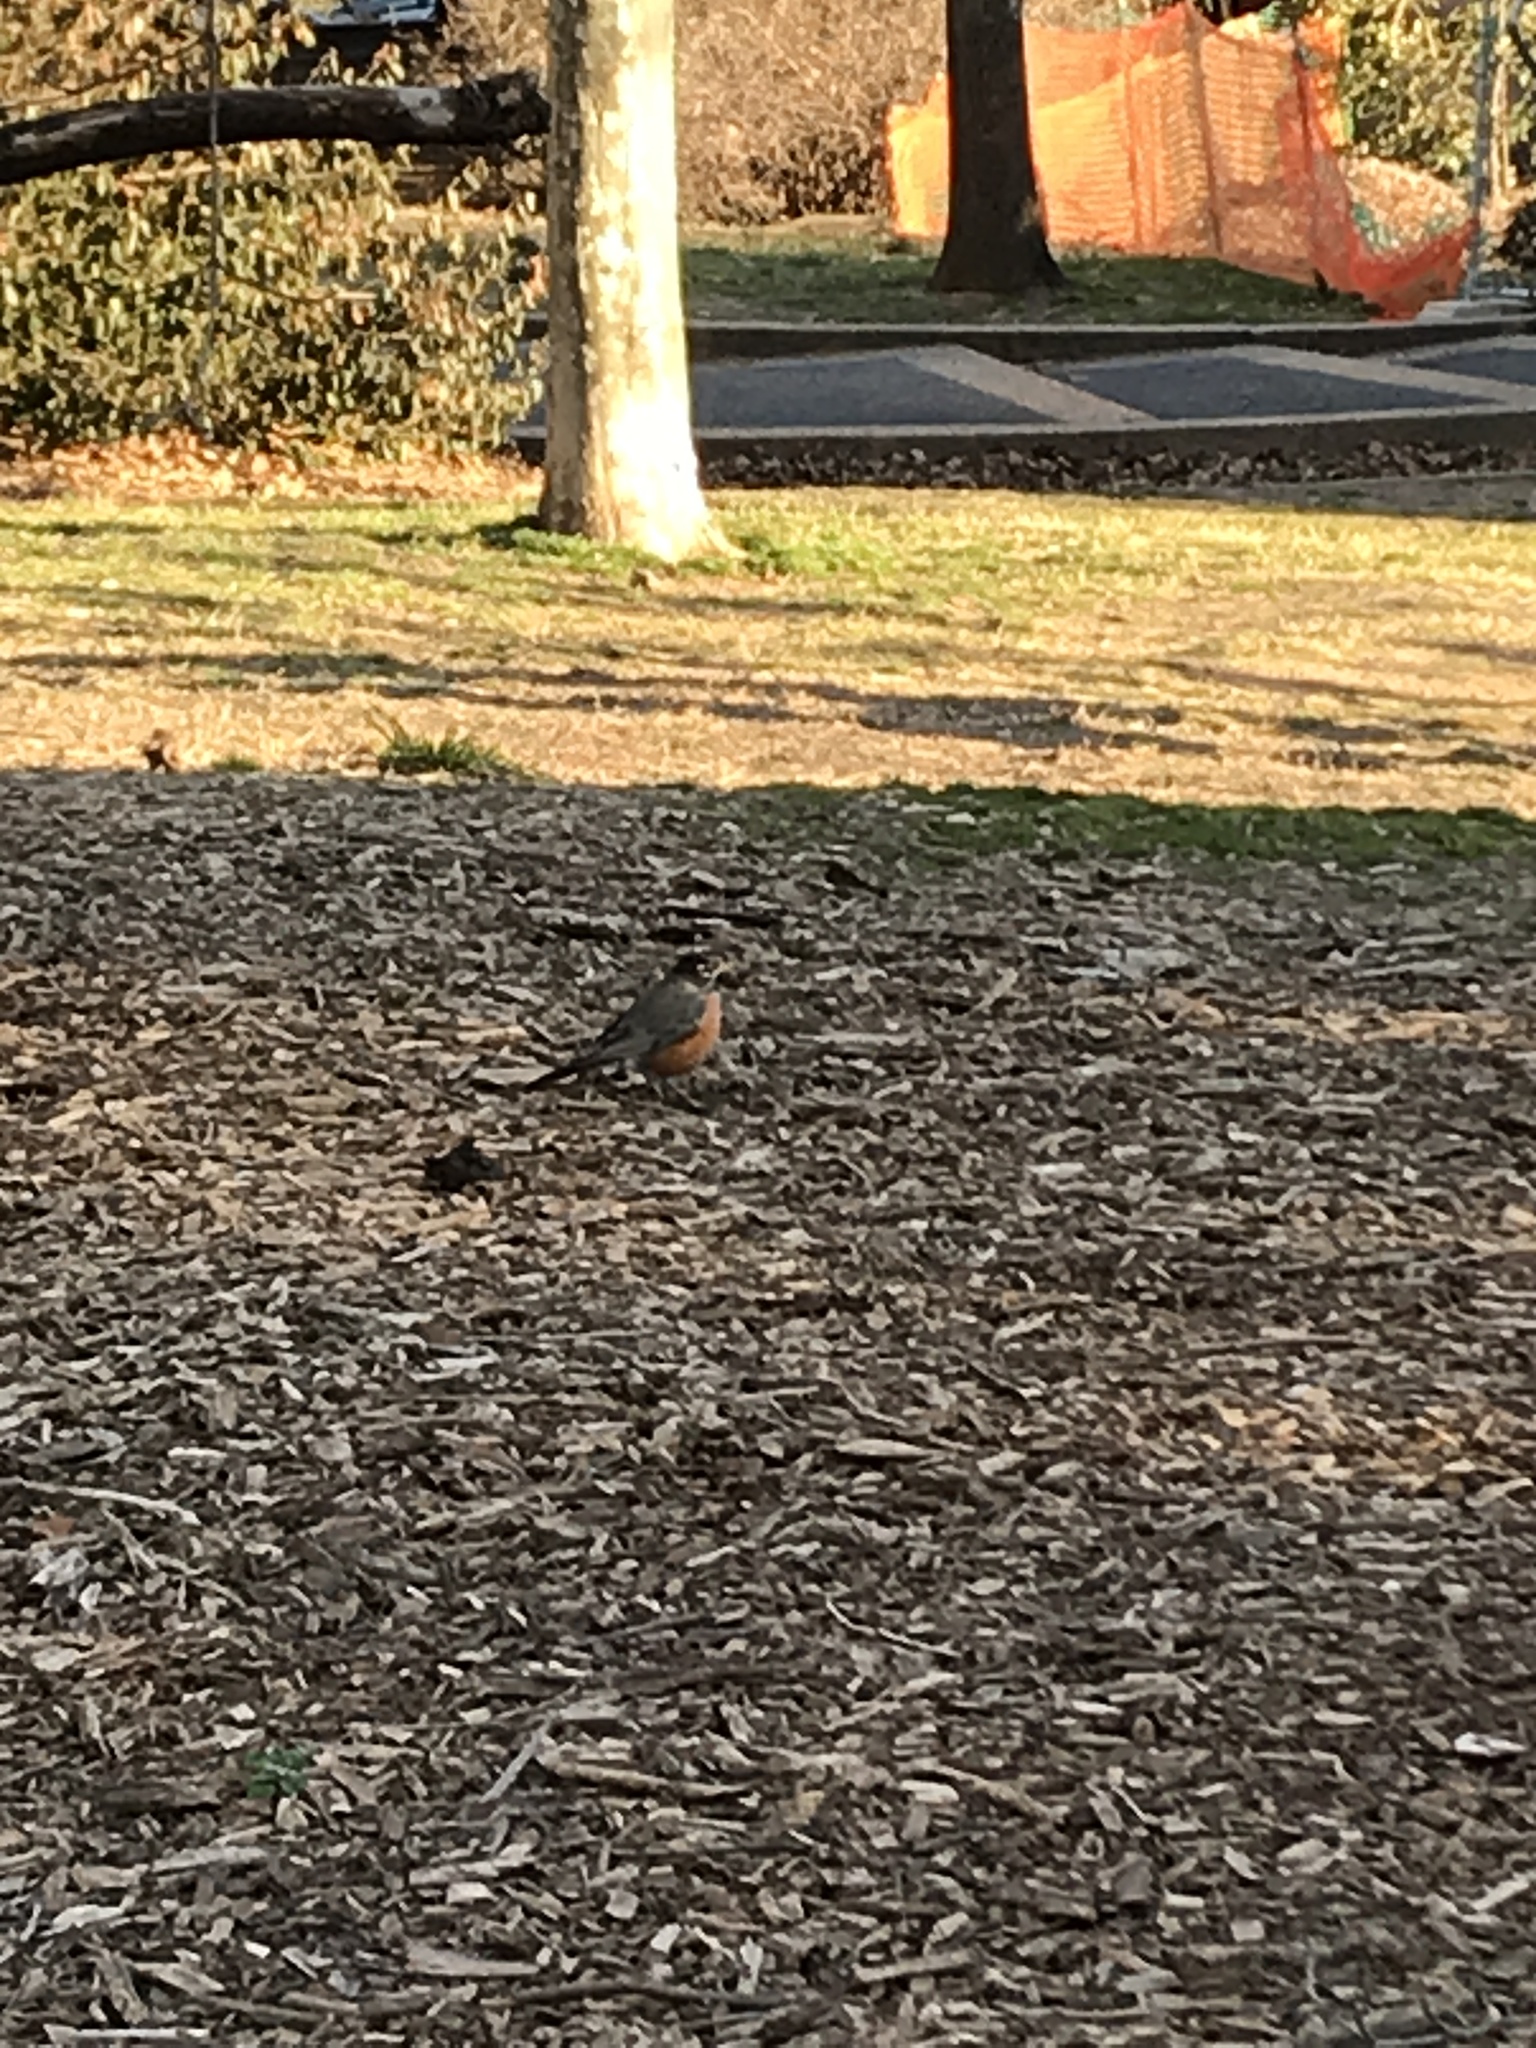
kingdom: Animalia
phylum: Chordata
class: Aves
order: Passeriformes
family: Turdidae
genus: Turdus
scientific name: Turdus migratorius
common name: American robin
